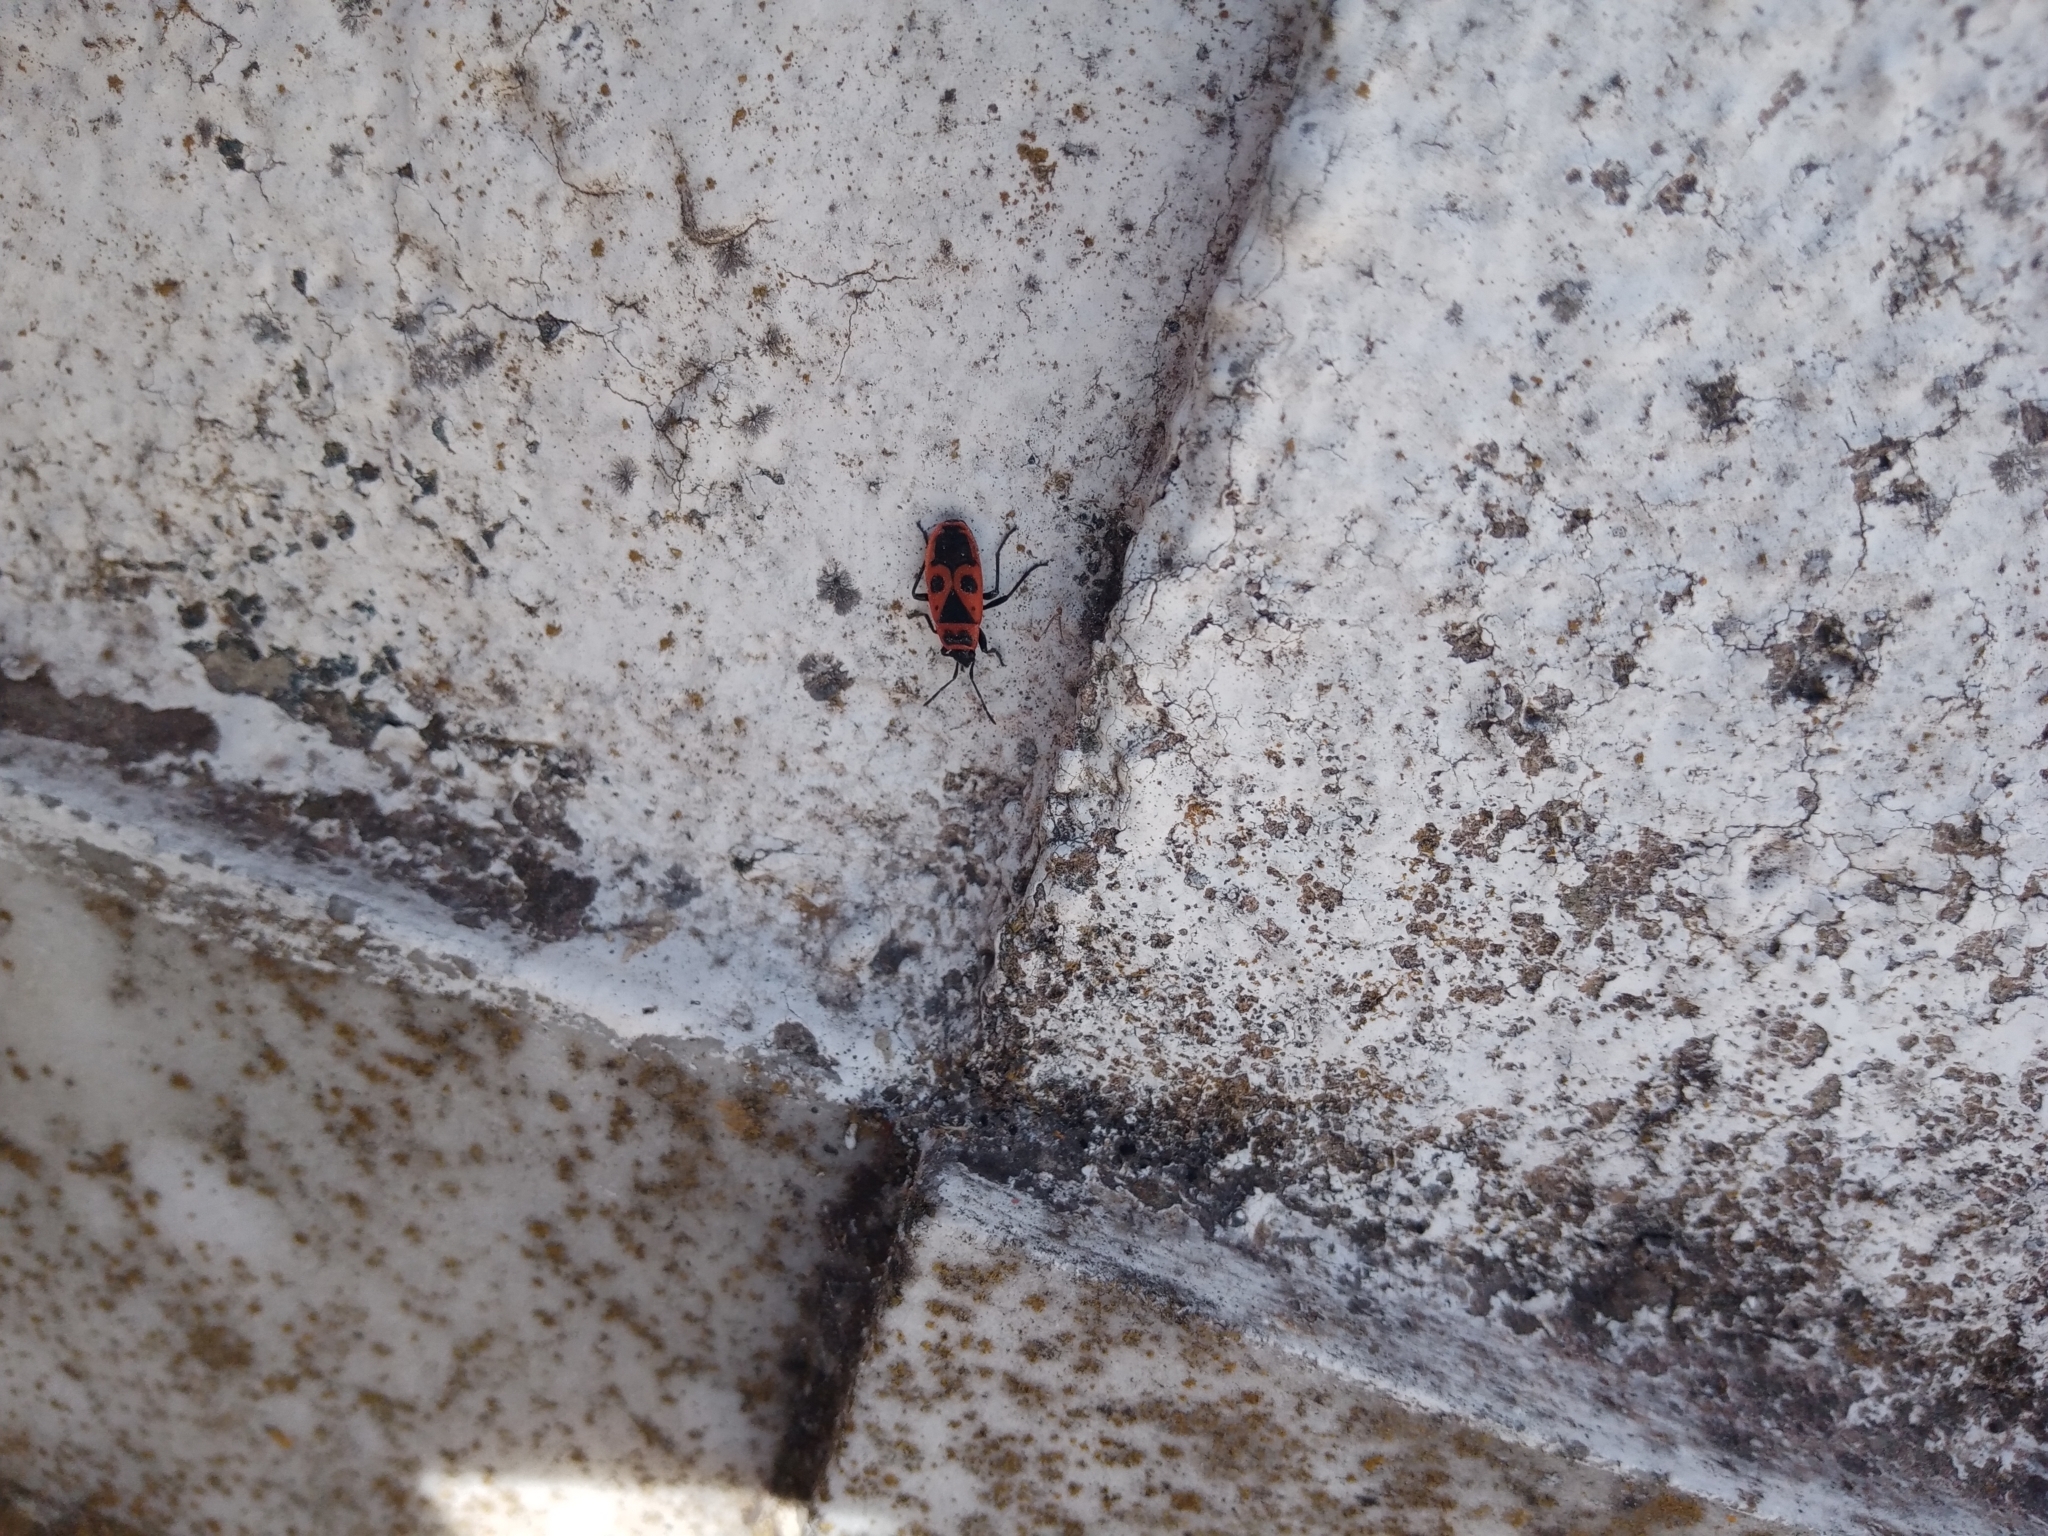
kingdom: Animalia
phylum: Arthropoda
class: Insecta
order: Hemiptera
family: Pyrrhocoridae
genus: Pyrrhocoris
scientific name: Pyrrhocoris apterus
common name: Firebug
